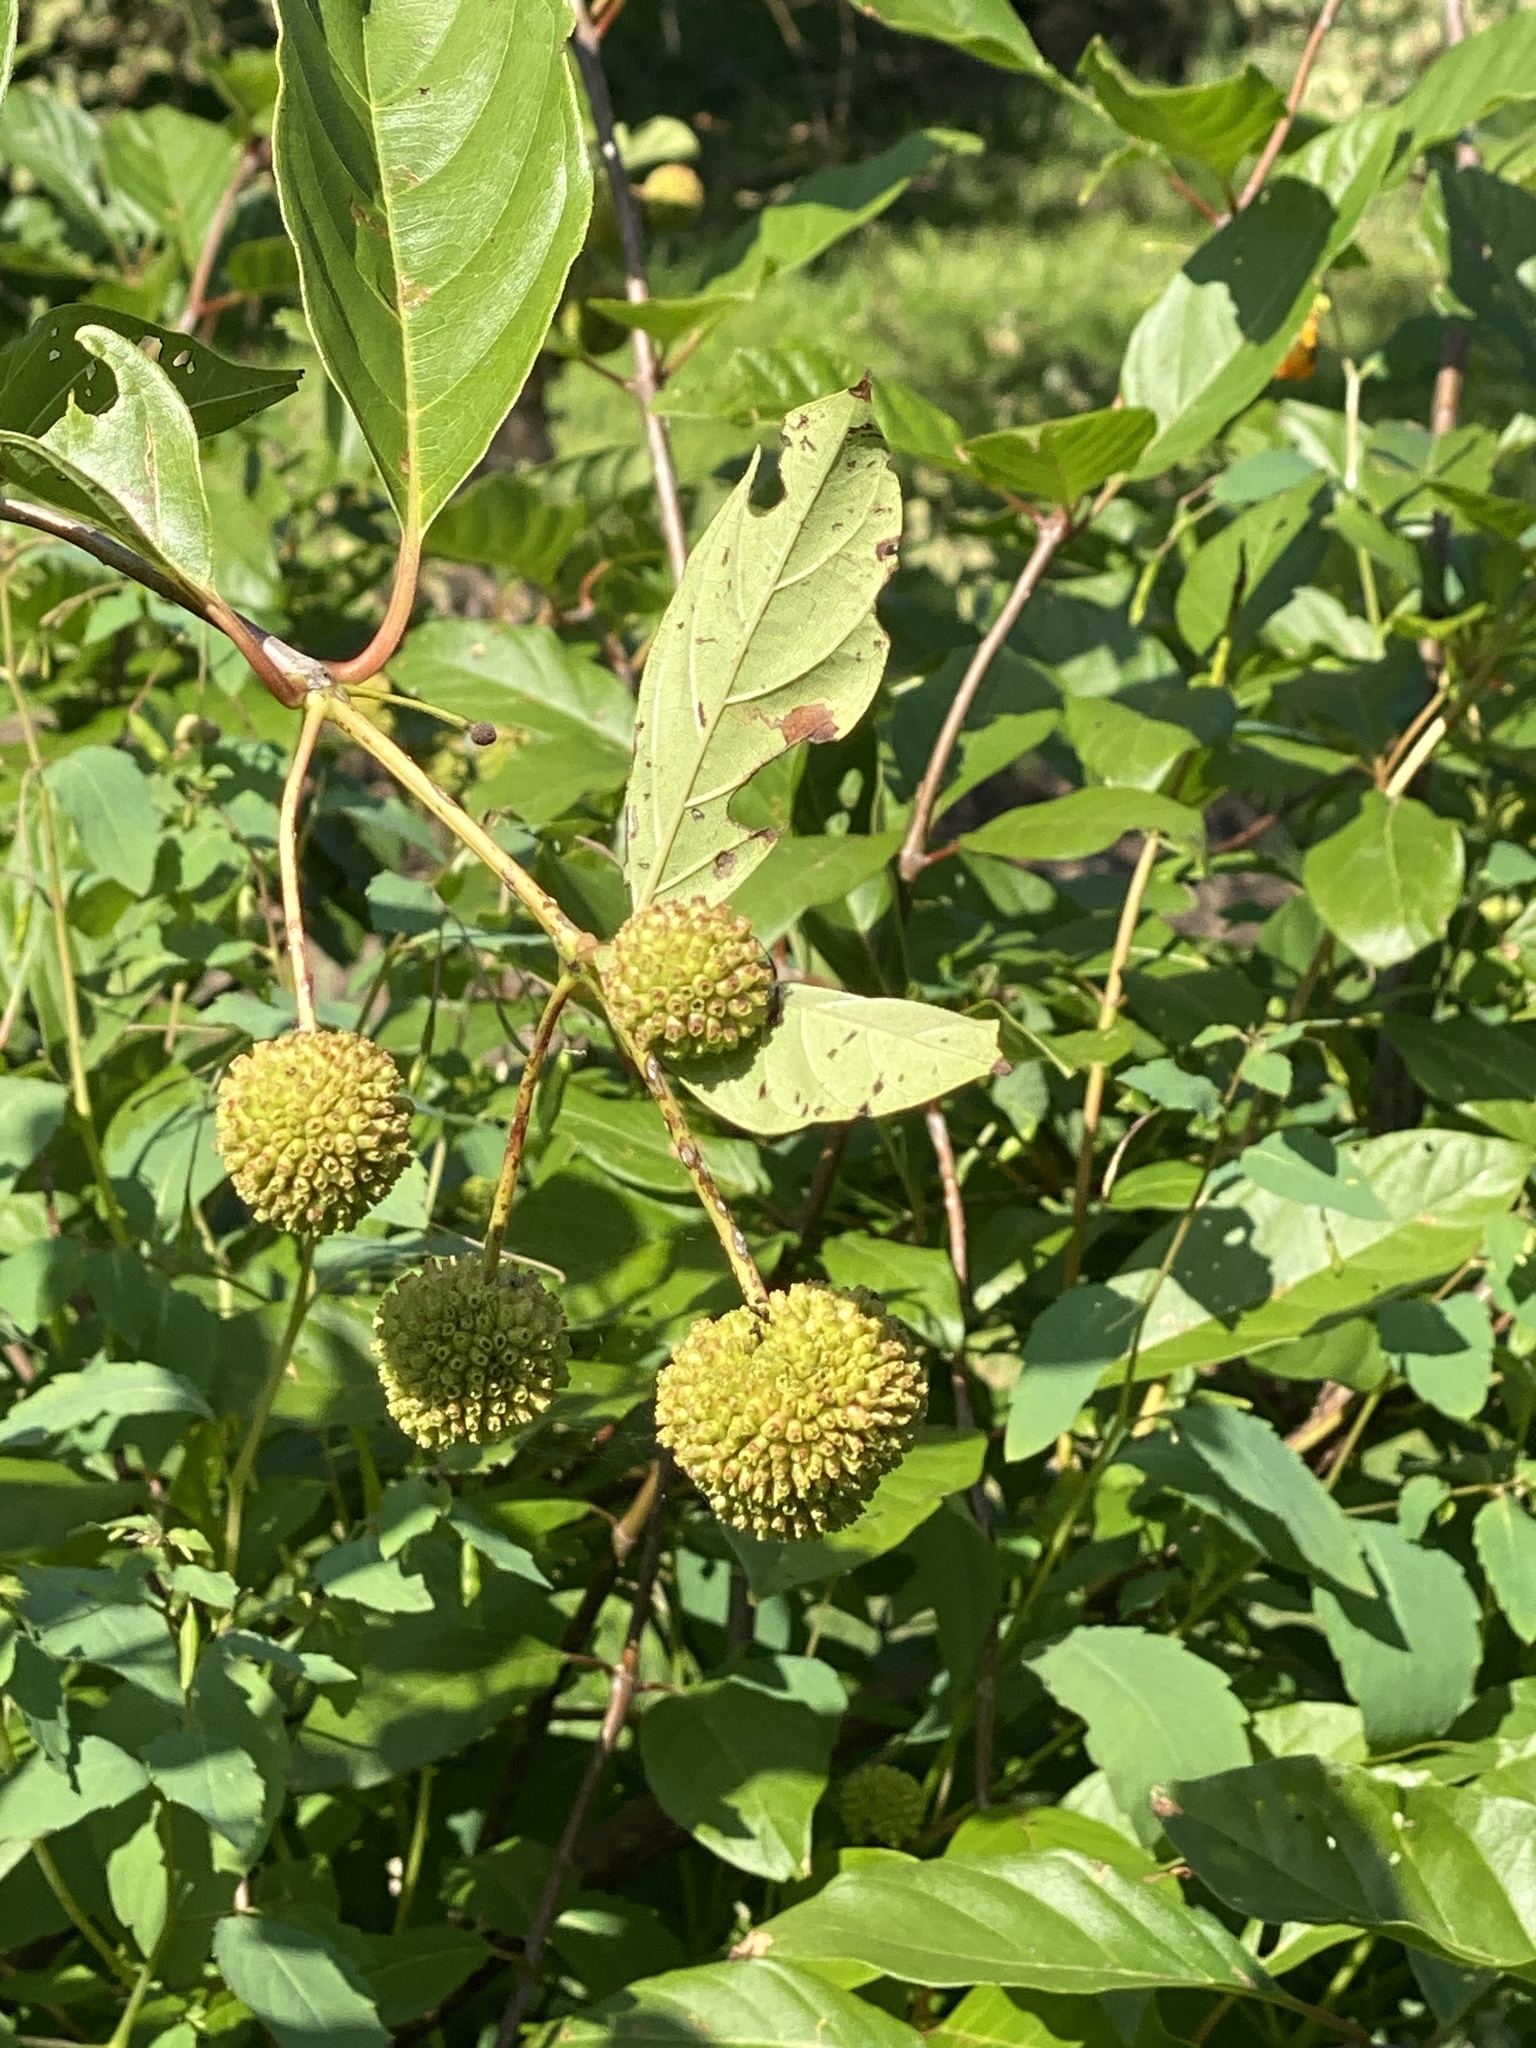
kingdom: Plantae
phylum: Tracheophyta
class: Magnoliopsida
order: Gentianales
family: Rubiaceae
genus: Cephalanthus
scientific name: Cephalanthus occidentalis
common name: Button-willow
